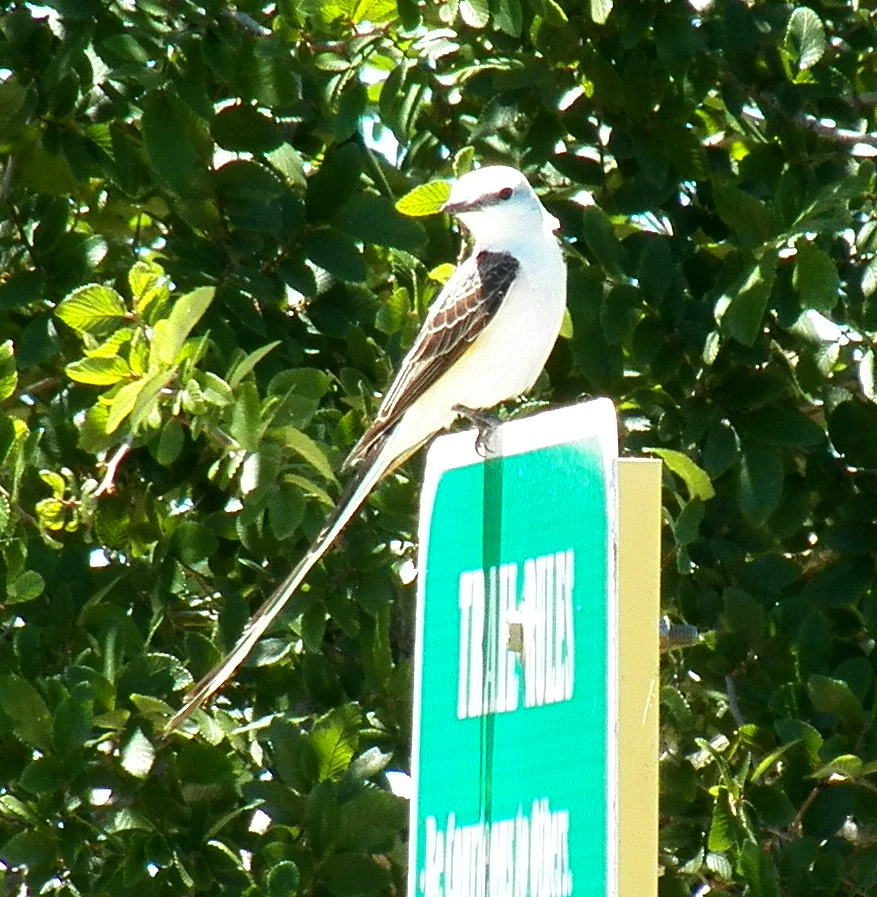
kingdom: Animalia
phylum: Chordata
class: Aves
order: Passeriformes
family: Tyrannidae
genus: Tyrannus
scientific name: Tyrannus forficatus
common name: Scissor-tailed flycatcher
